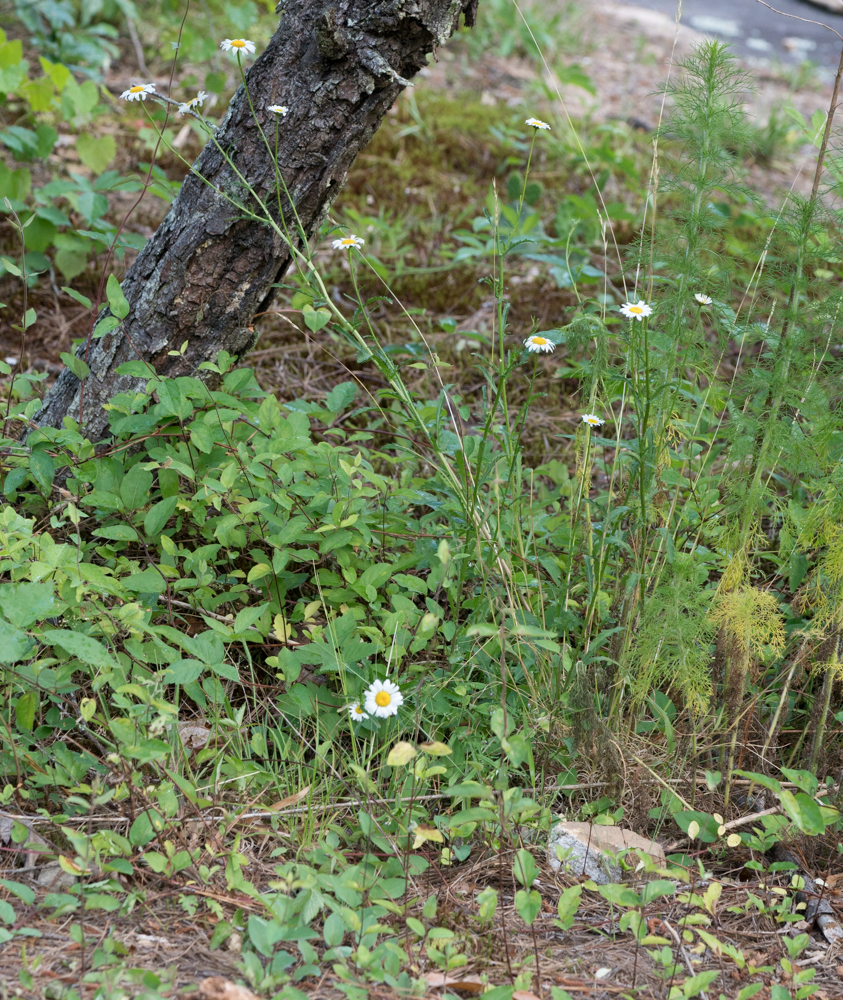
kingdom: Plantae
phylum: Tracheophyta
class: Magnoliopsida
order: Asterales
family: Asteraceae
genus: Leucanthemum
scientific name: Leucanthemum vulgare
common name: Oxeye daisy
